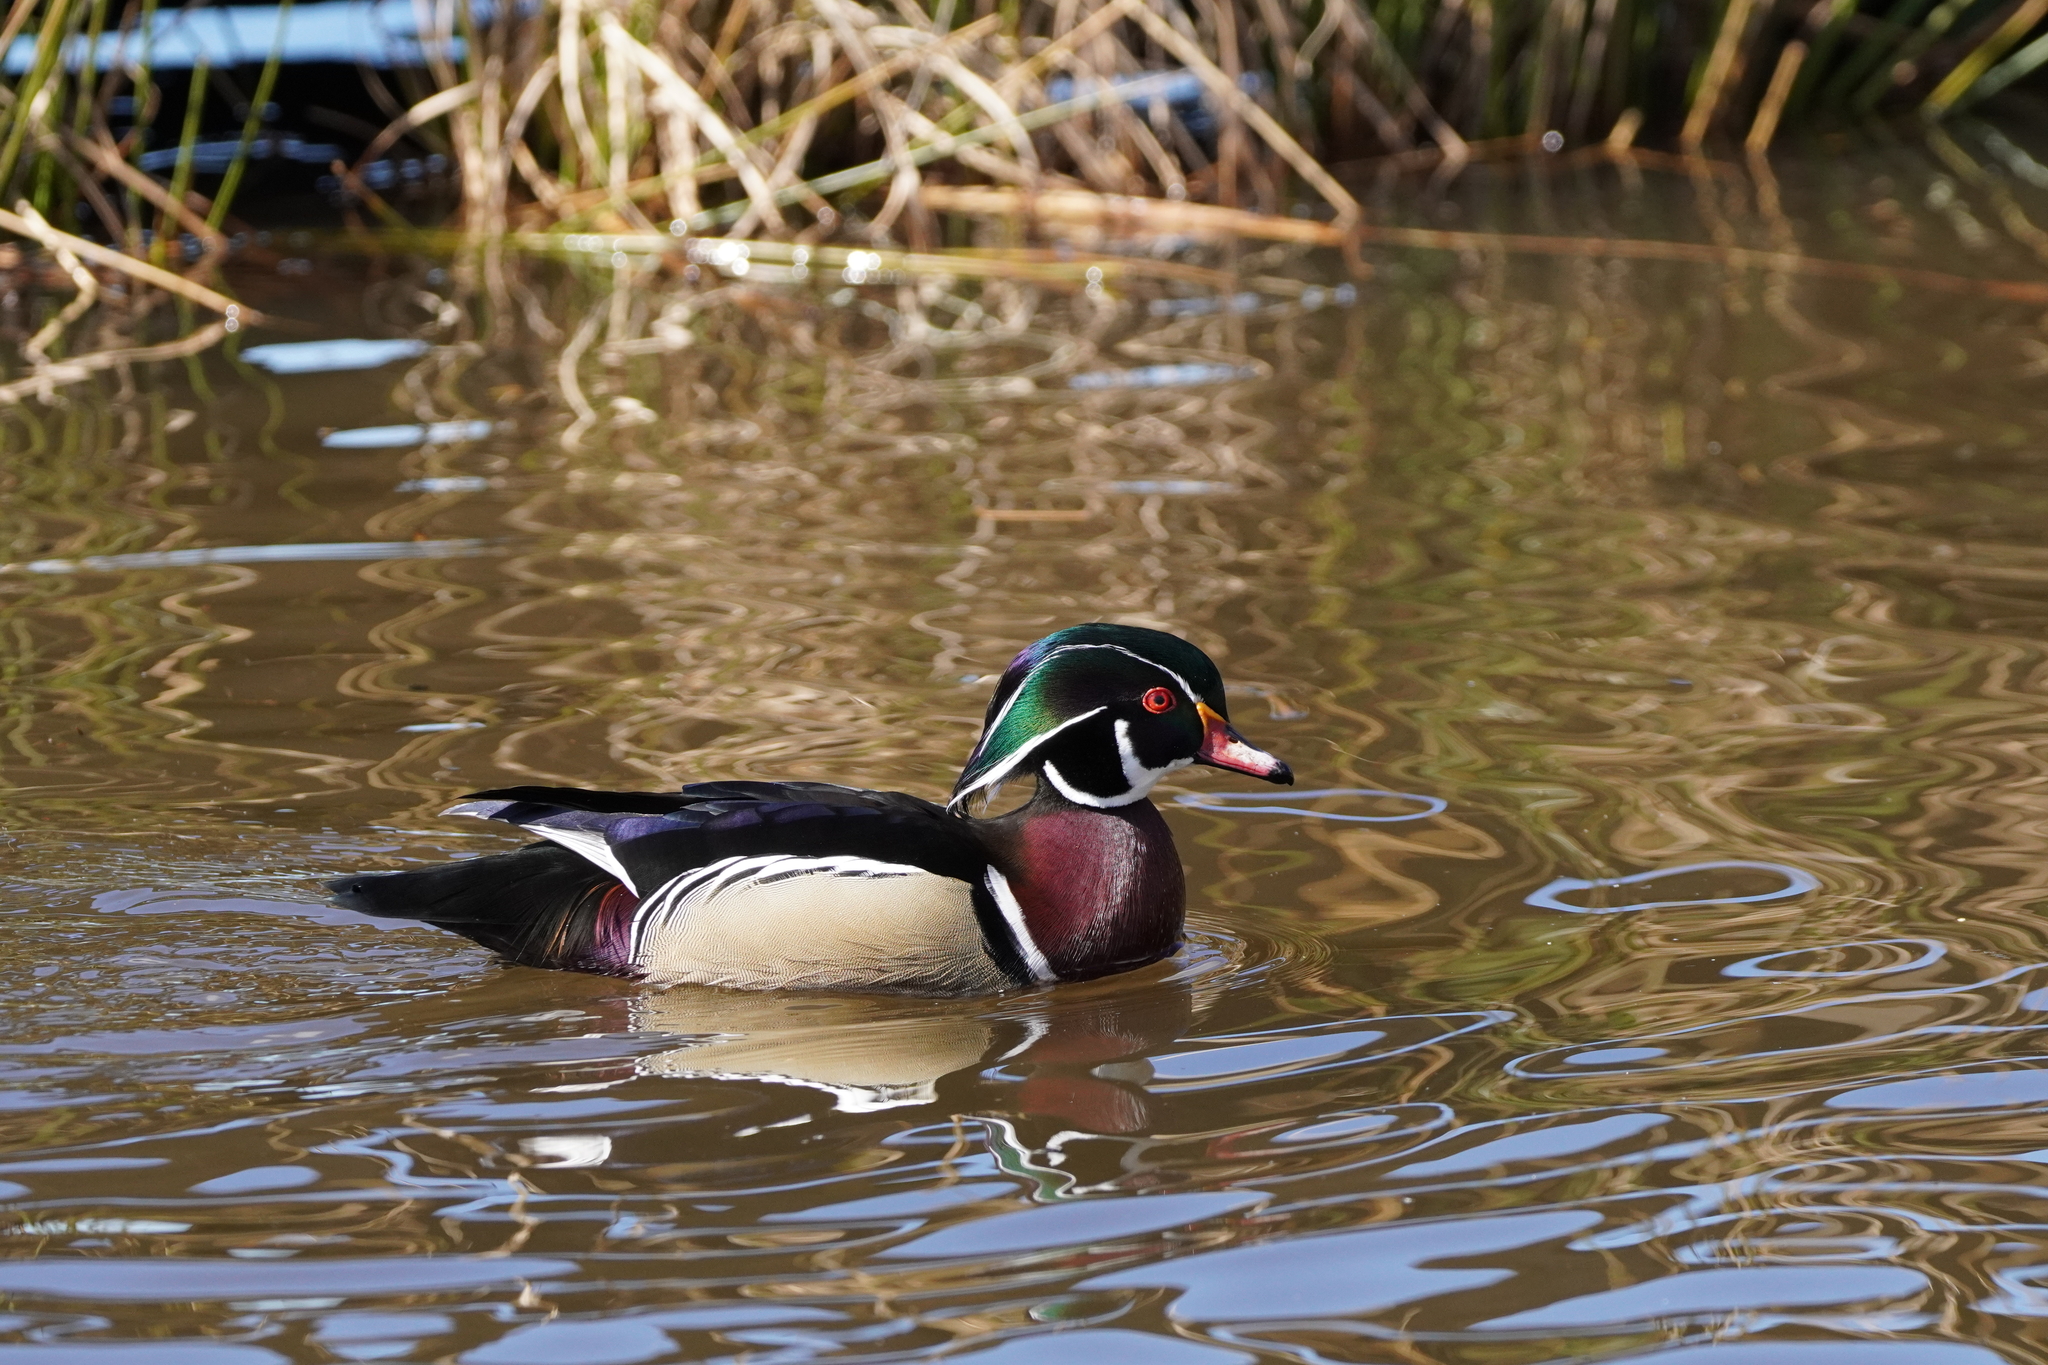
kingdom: Animalia
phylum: Chordata
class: Aves
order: Anseriformes
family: Anatidae
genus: Aix
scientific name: Aix sponsa
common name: Wood duck
